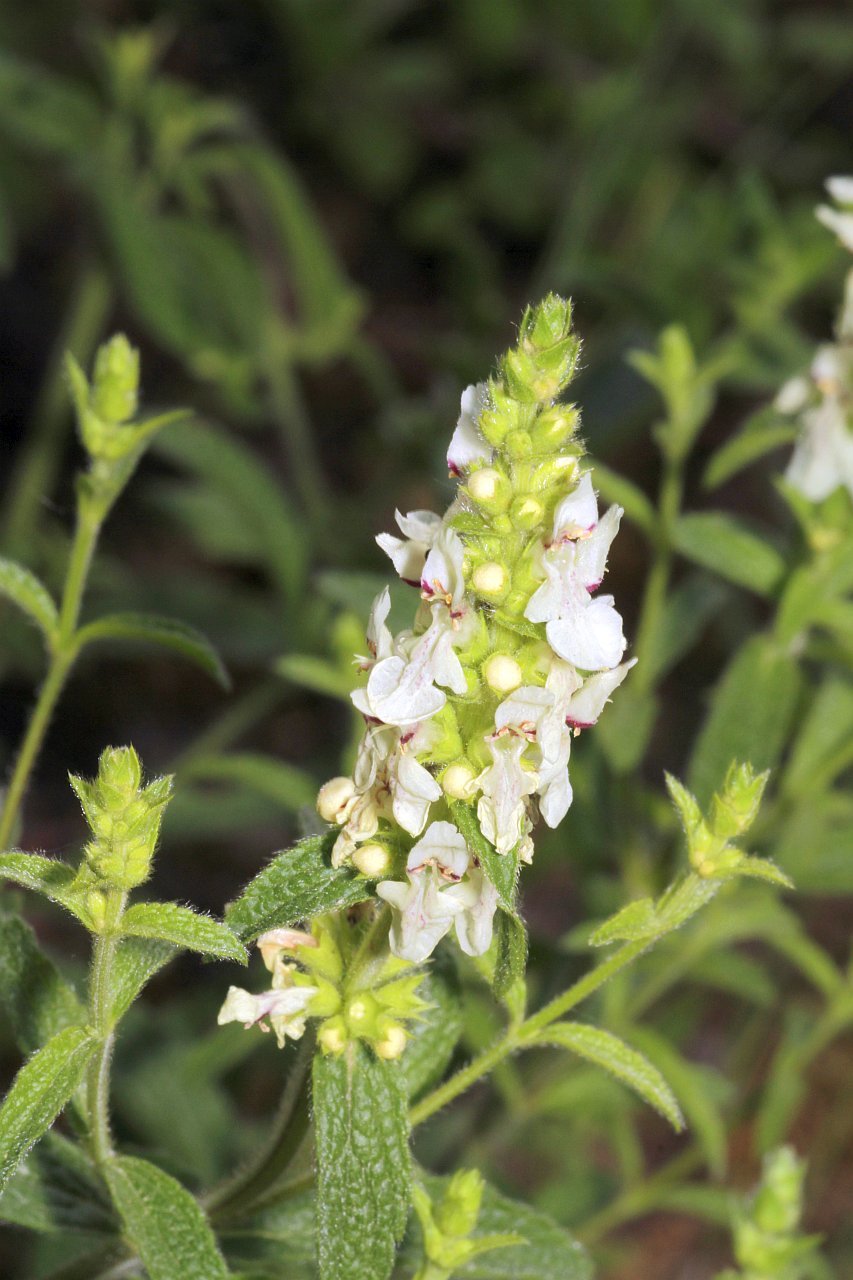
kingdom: Plantae
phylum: Tracheophyta
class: Magnoliopsida
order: Lamiales
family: Lamiaceae
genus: Stachys
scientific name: Stachys recta
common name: Perennial yellow-woundwort
